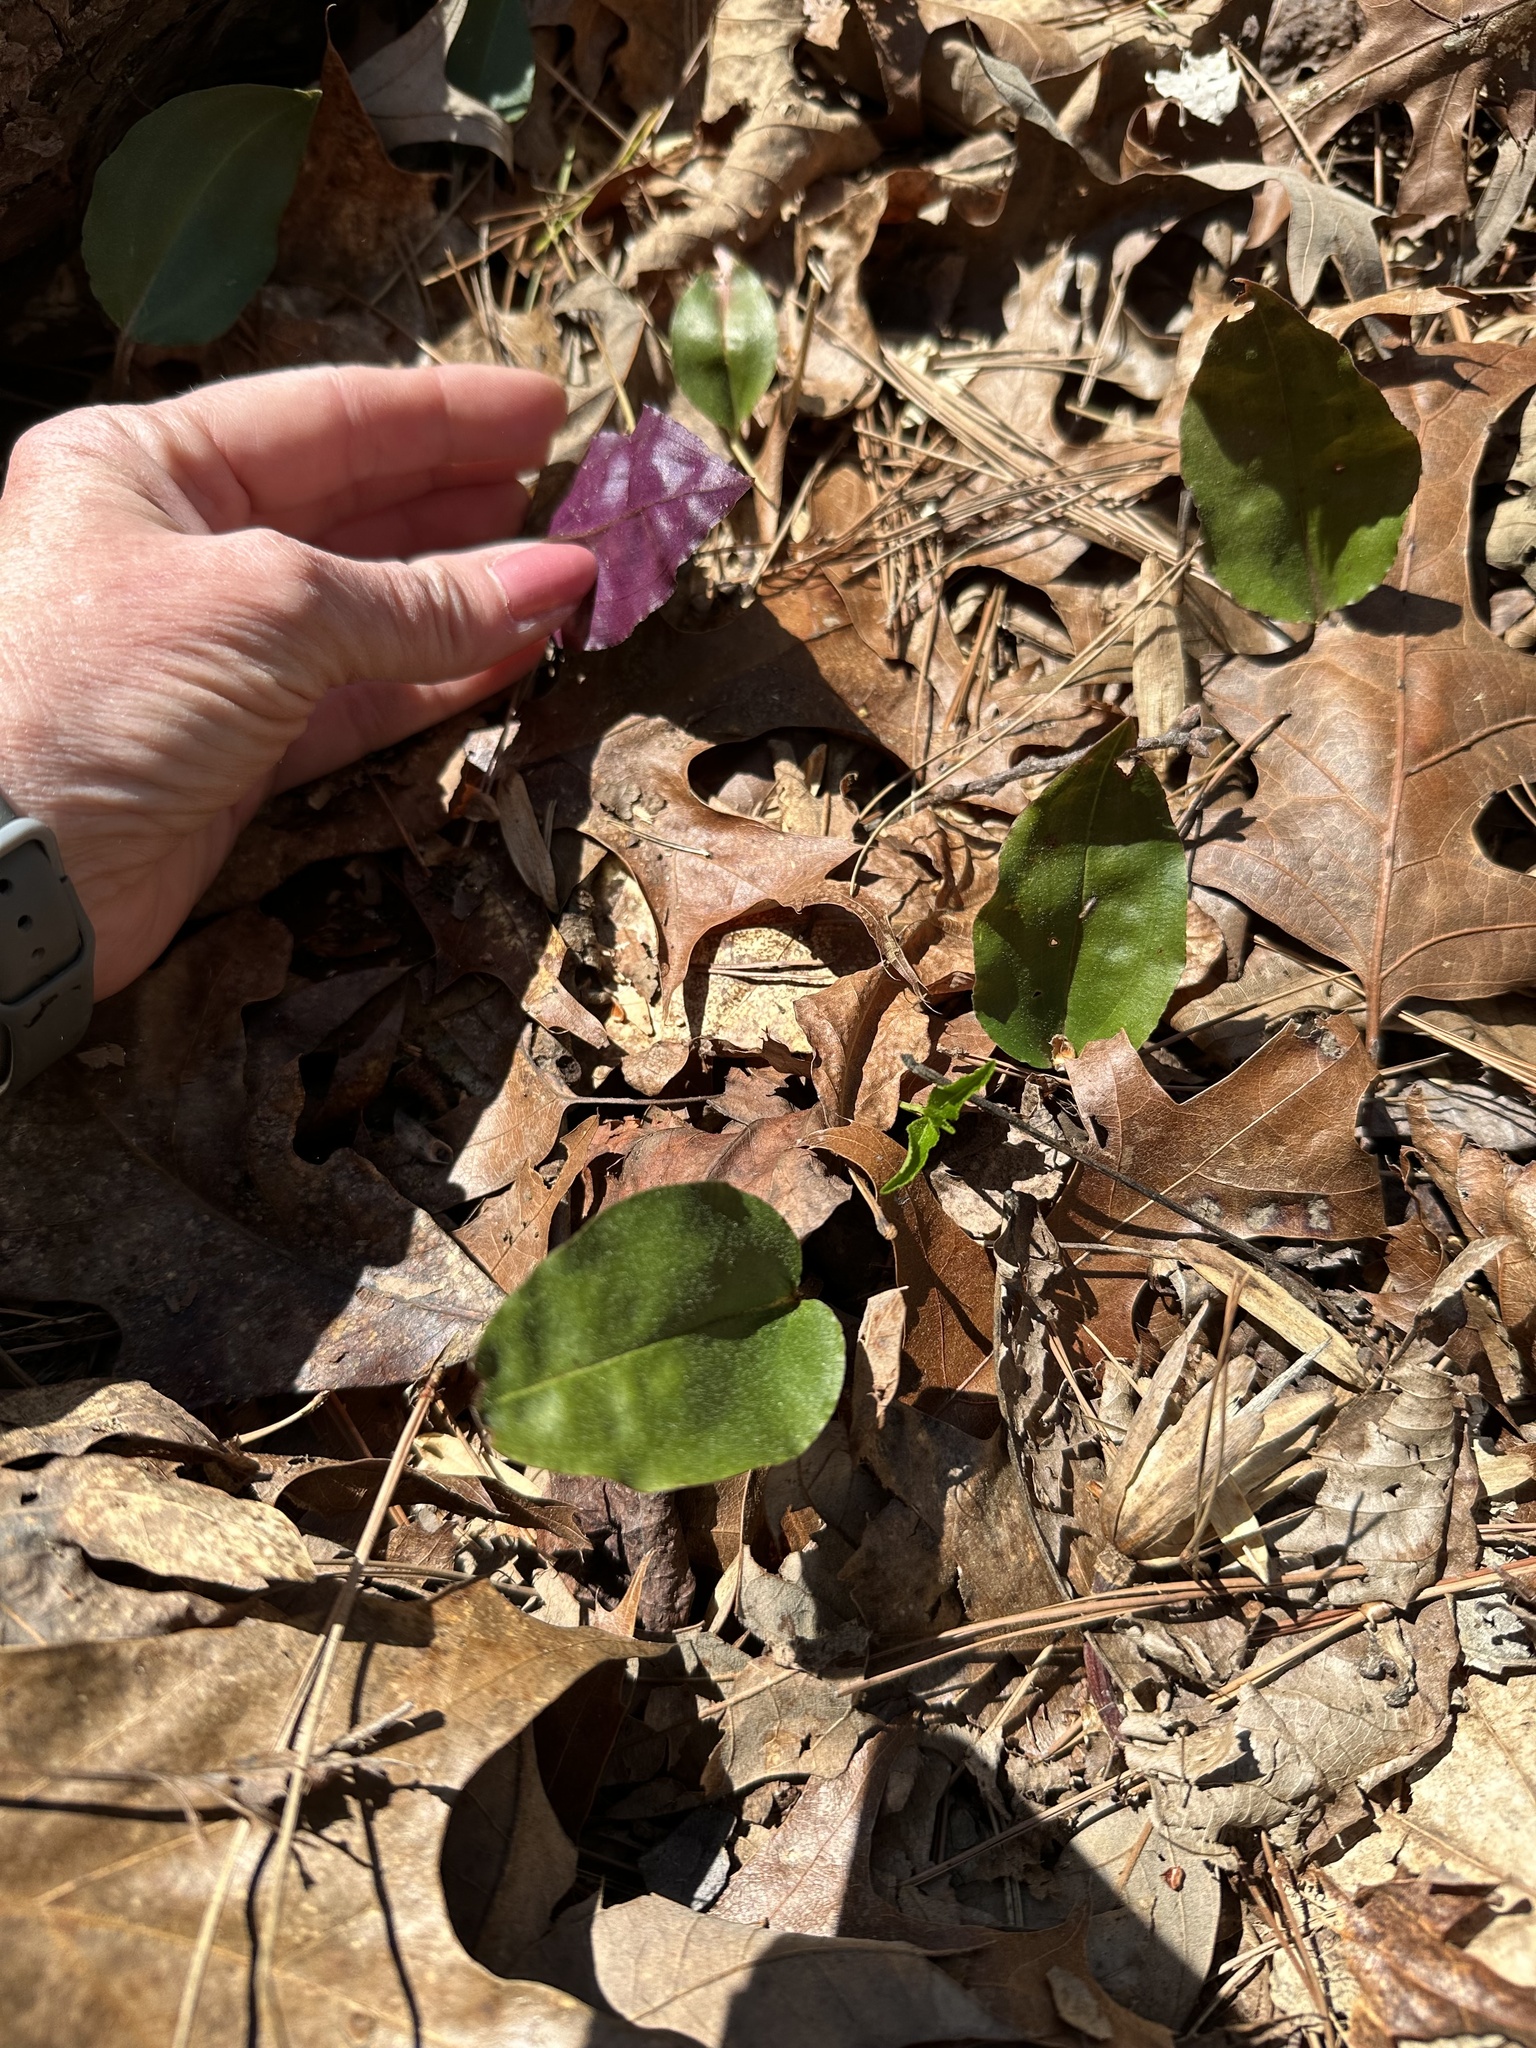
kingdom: Plantae
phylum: Tracheophyta
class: Liliopsida
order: Asparagales
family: Orchidaceae
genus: Tipularia
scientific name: Tipularia discolor
